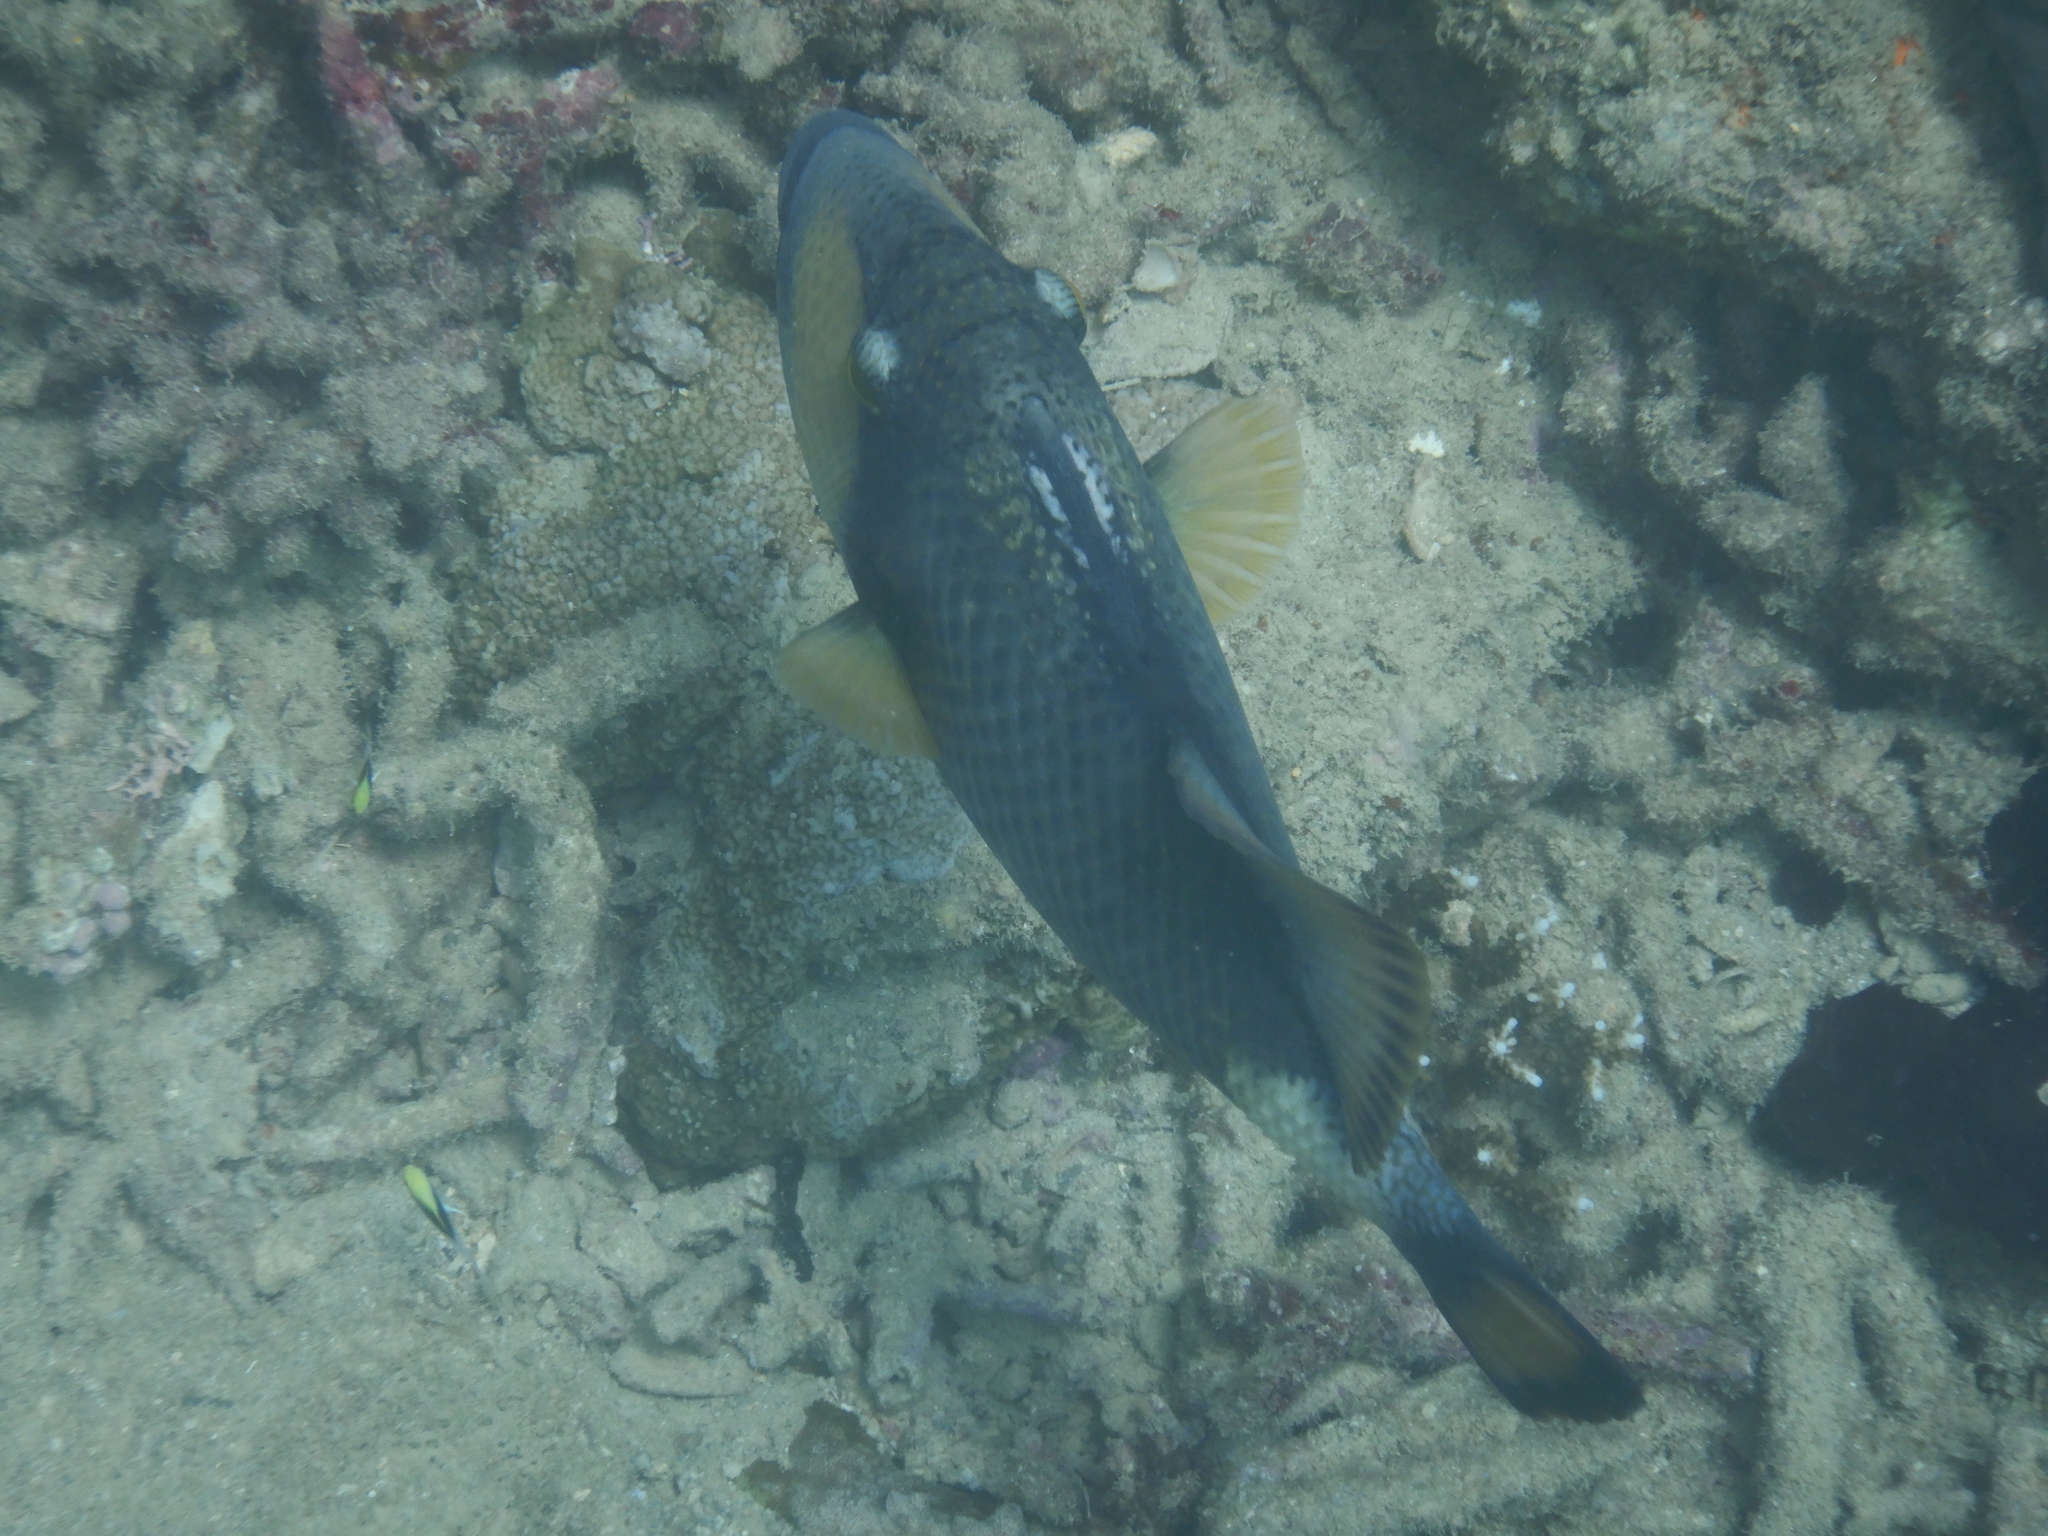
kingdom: Animalia
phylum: Chordata
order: Tetraodontiformes
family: Balistidae
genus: Balistoides
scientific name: Balistoides viridescens
